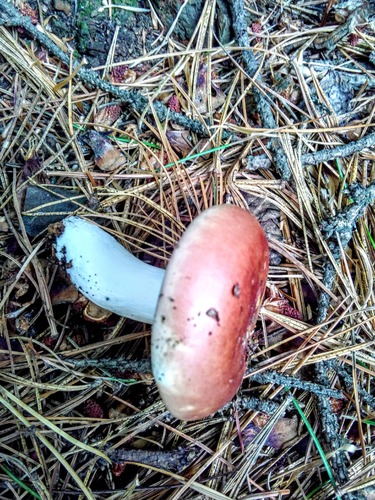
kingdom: Fungi
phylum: Basidiomycota
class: Agaricomycetes
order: Russulales
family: Russulaceae
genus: Russula
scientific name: Russula sanguinea
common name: Bloody brittlegill
